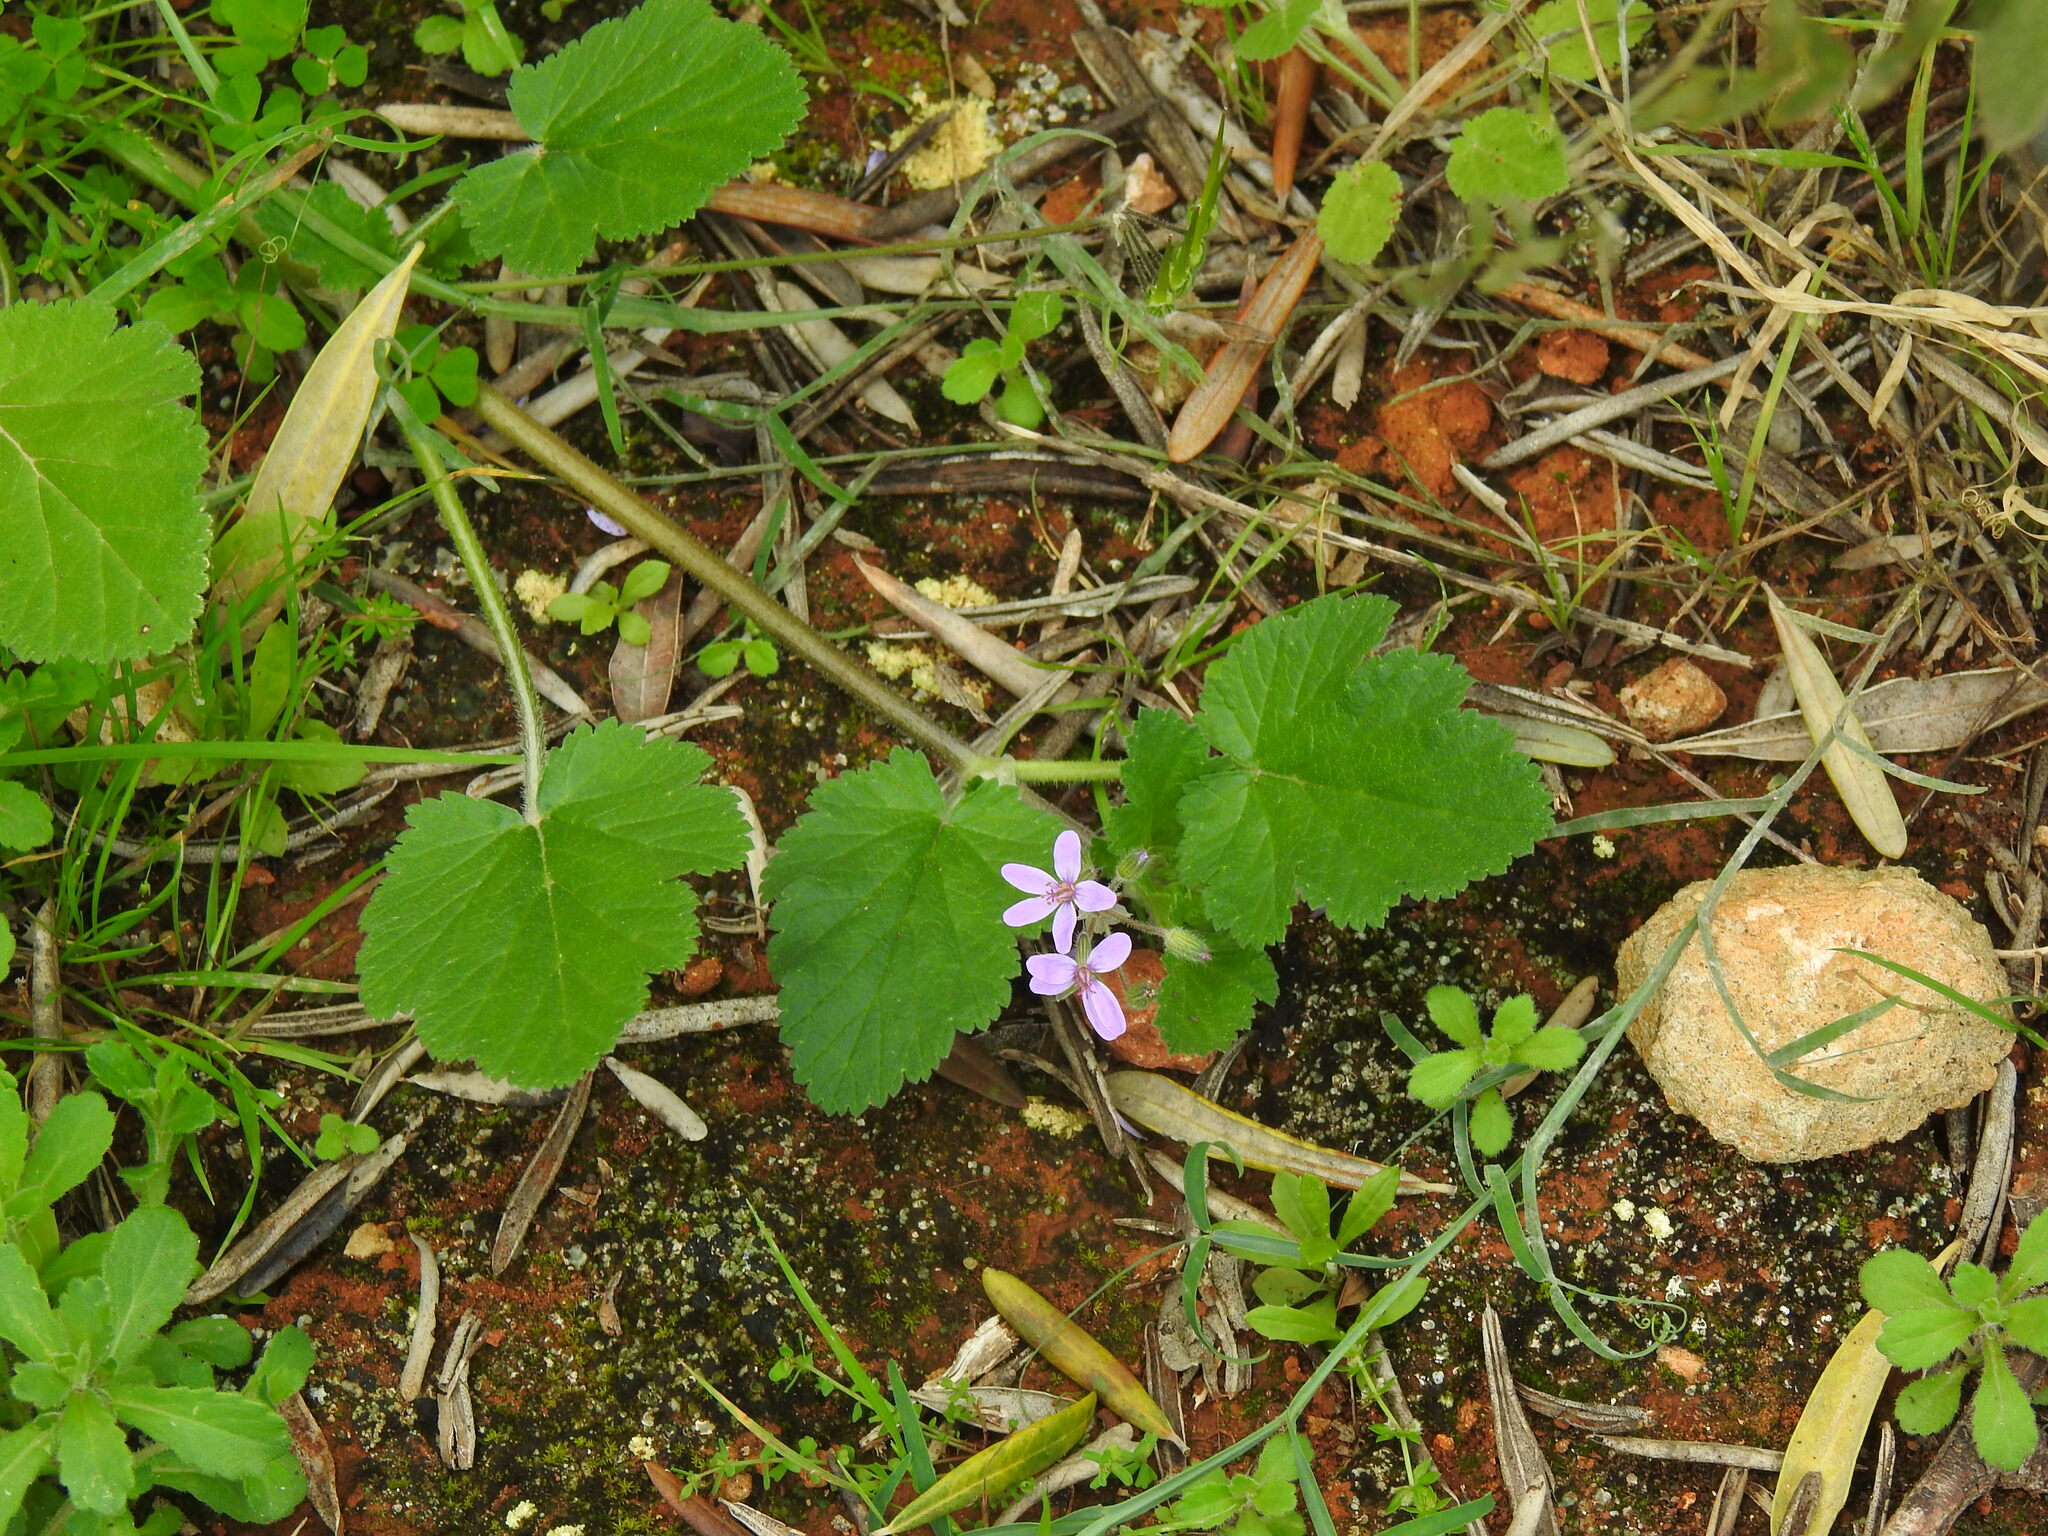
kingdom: Plantae
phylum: Tracheophyta
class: Magnoliopsida
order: Geraniales
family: Geraniaceae
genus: Erodium
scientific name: Erodium malacoides
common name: Soft stork's-bill
